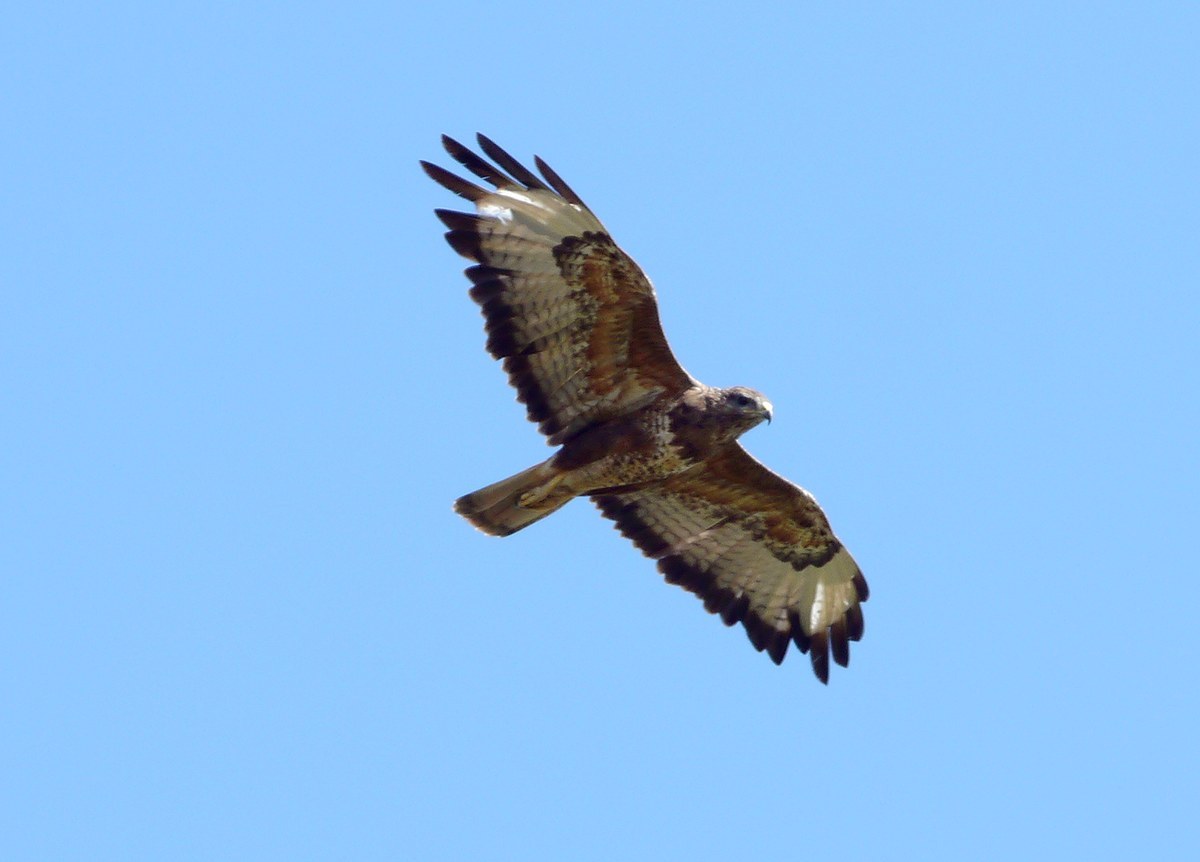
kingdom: Animalia
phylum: Chordata
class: Aves
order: Accipitriformes
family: Accipitridae
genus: Buteo
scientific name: Buteo buteo
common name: Common buzzard
